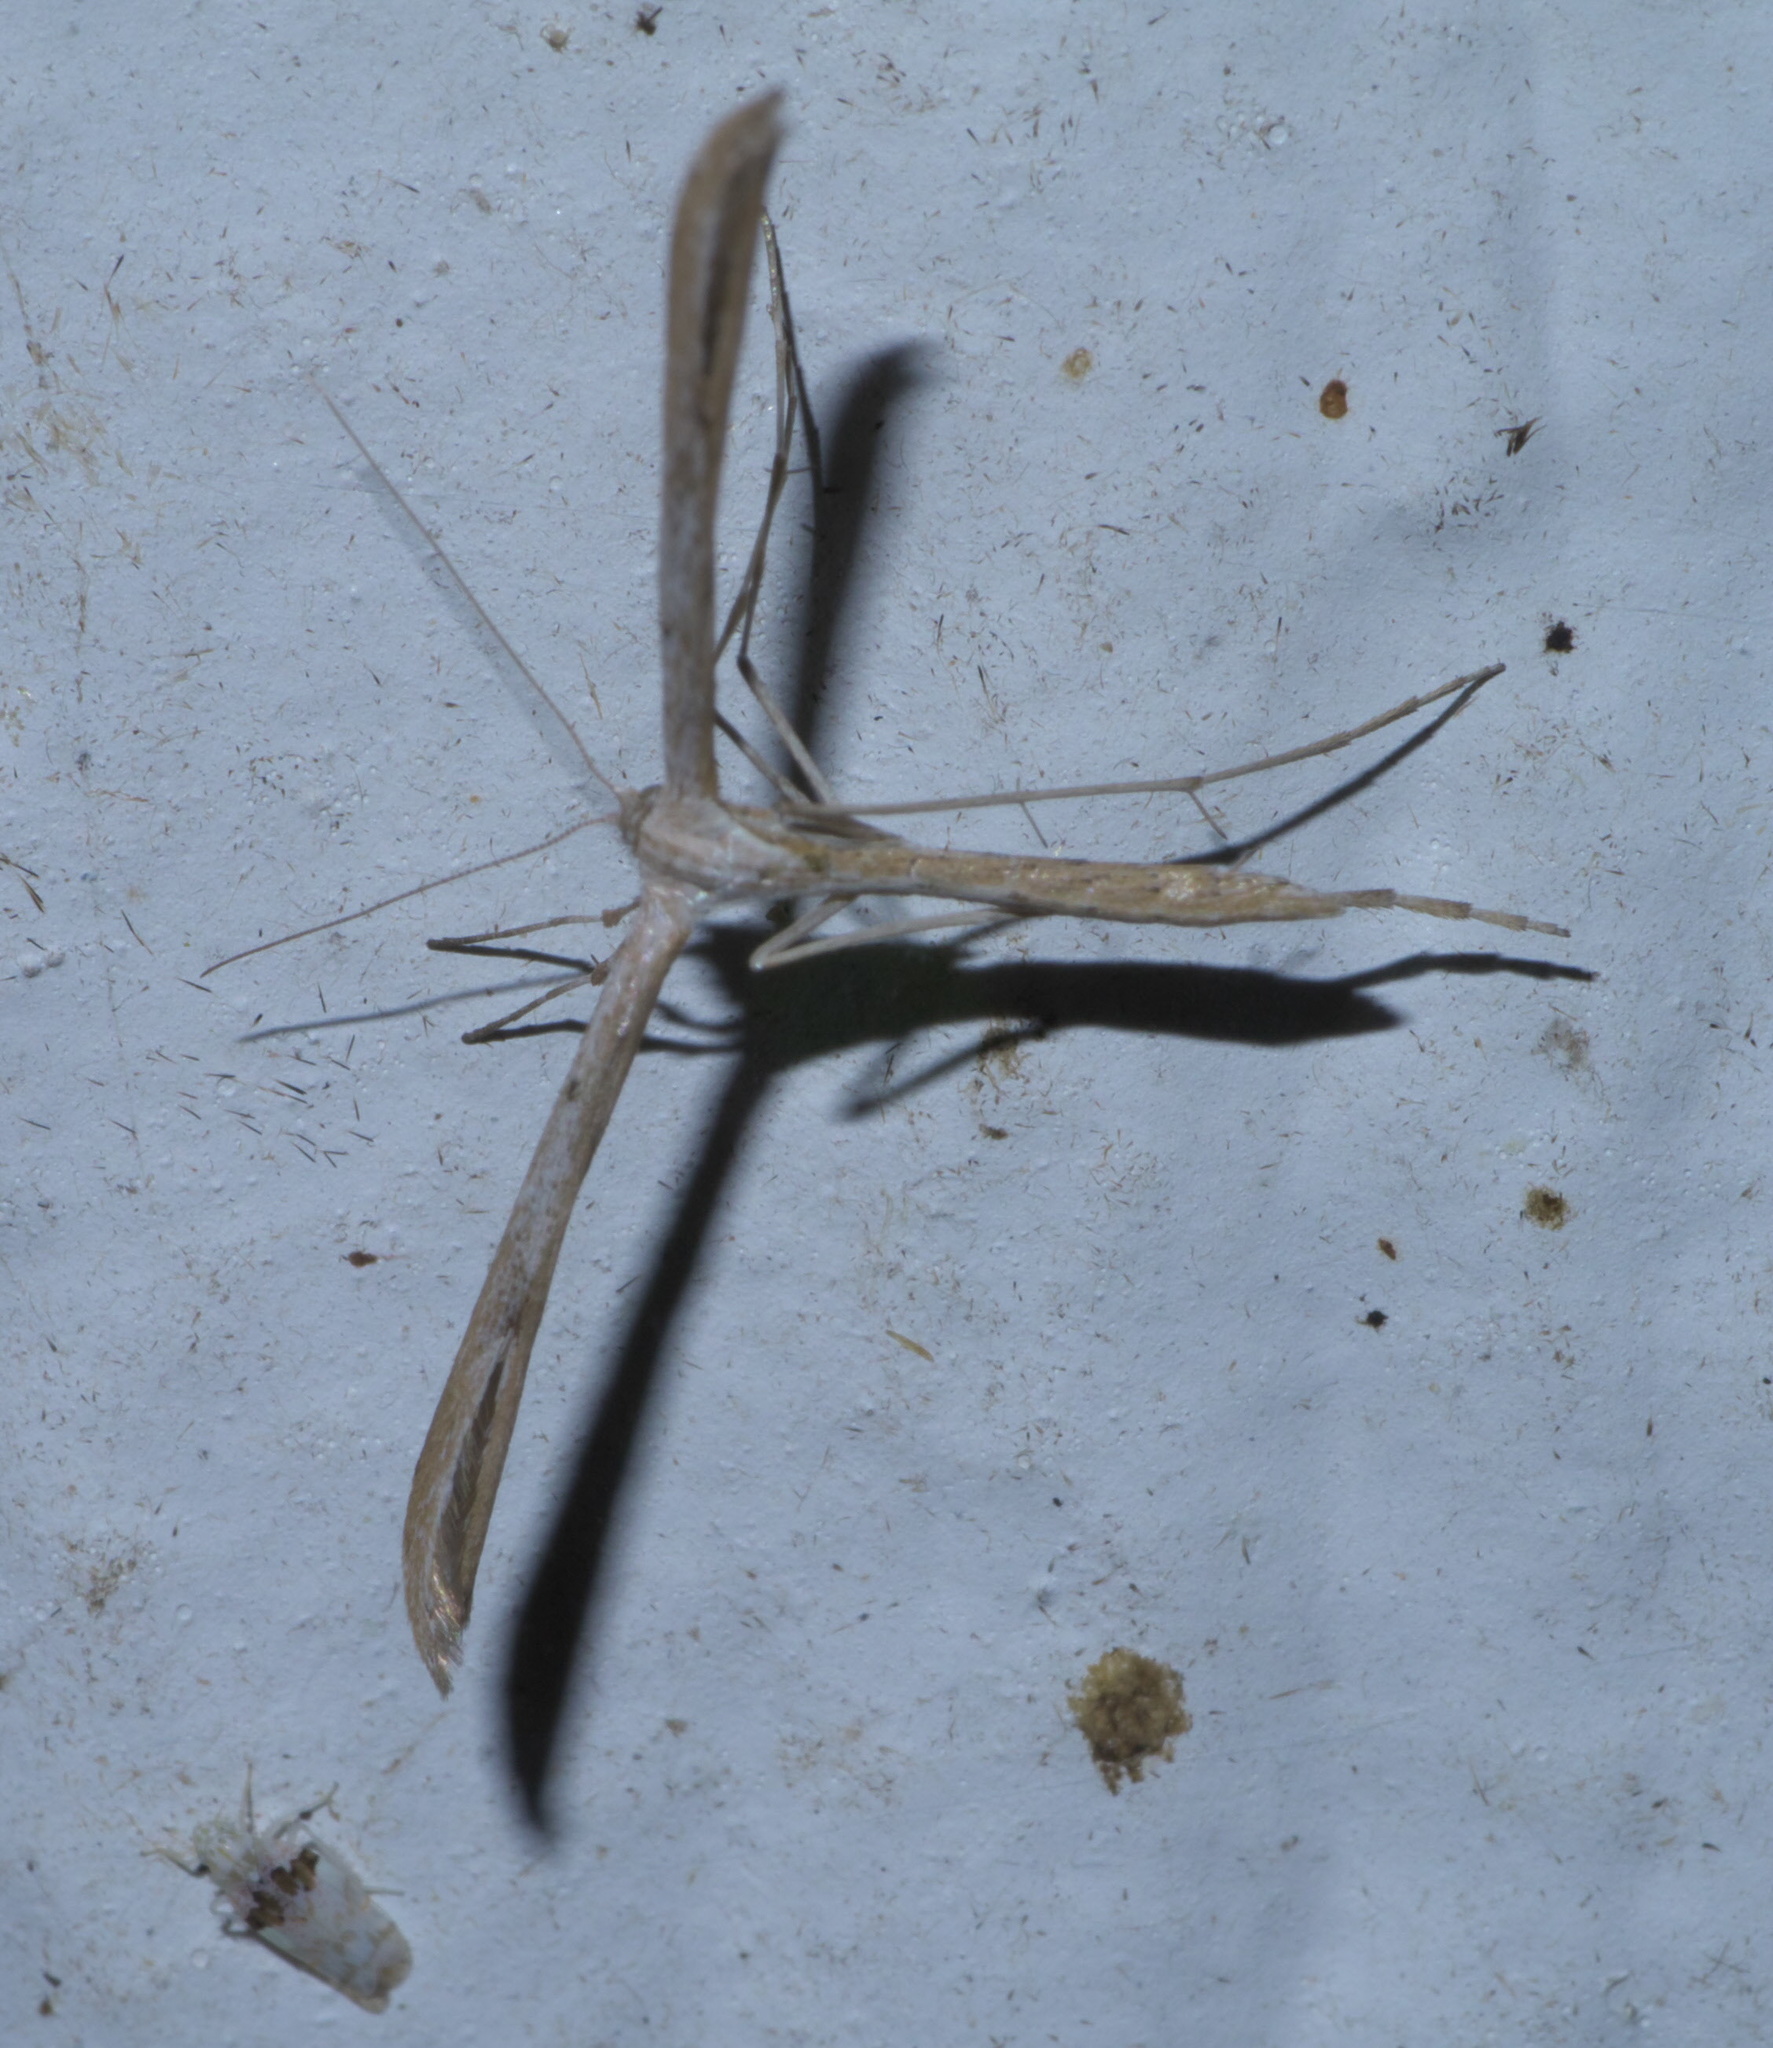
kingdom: Animalia
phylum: Arthropoda
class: Insecta
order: Lepidoptera
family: Pterophoridae
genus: Emmelina
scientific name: Emmelina monodactyla
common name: Common plume
